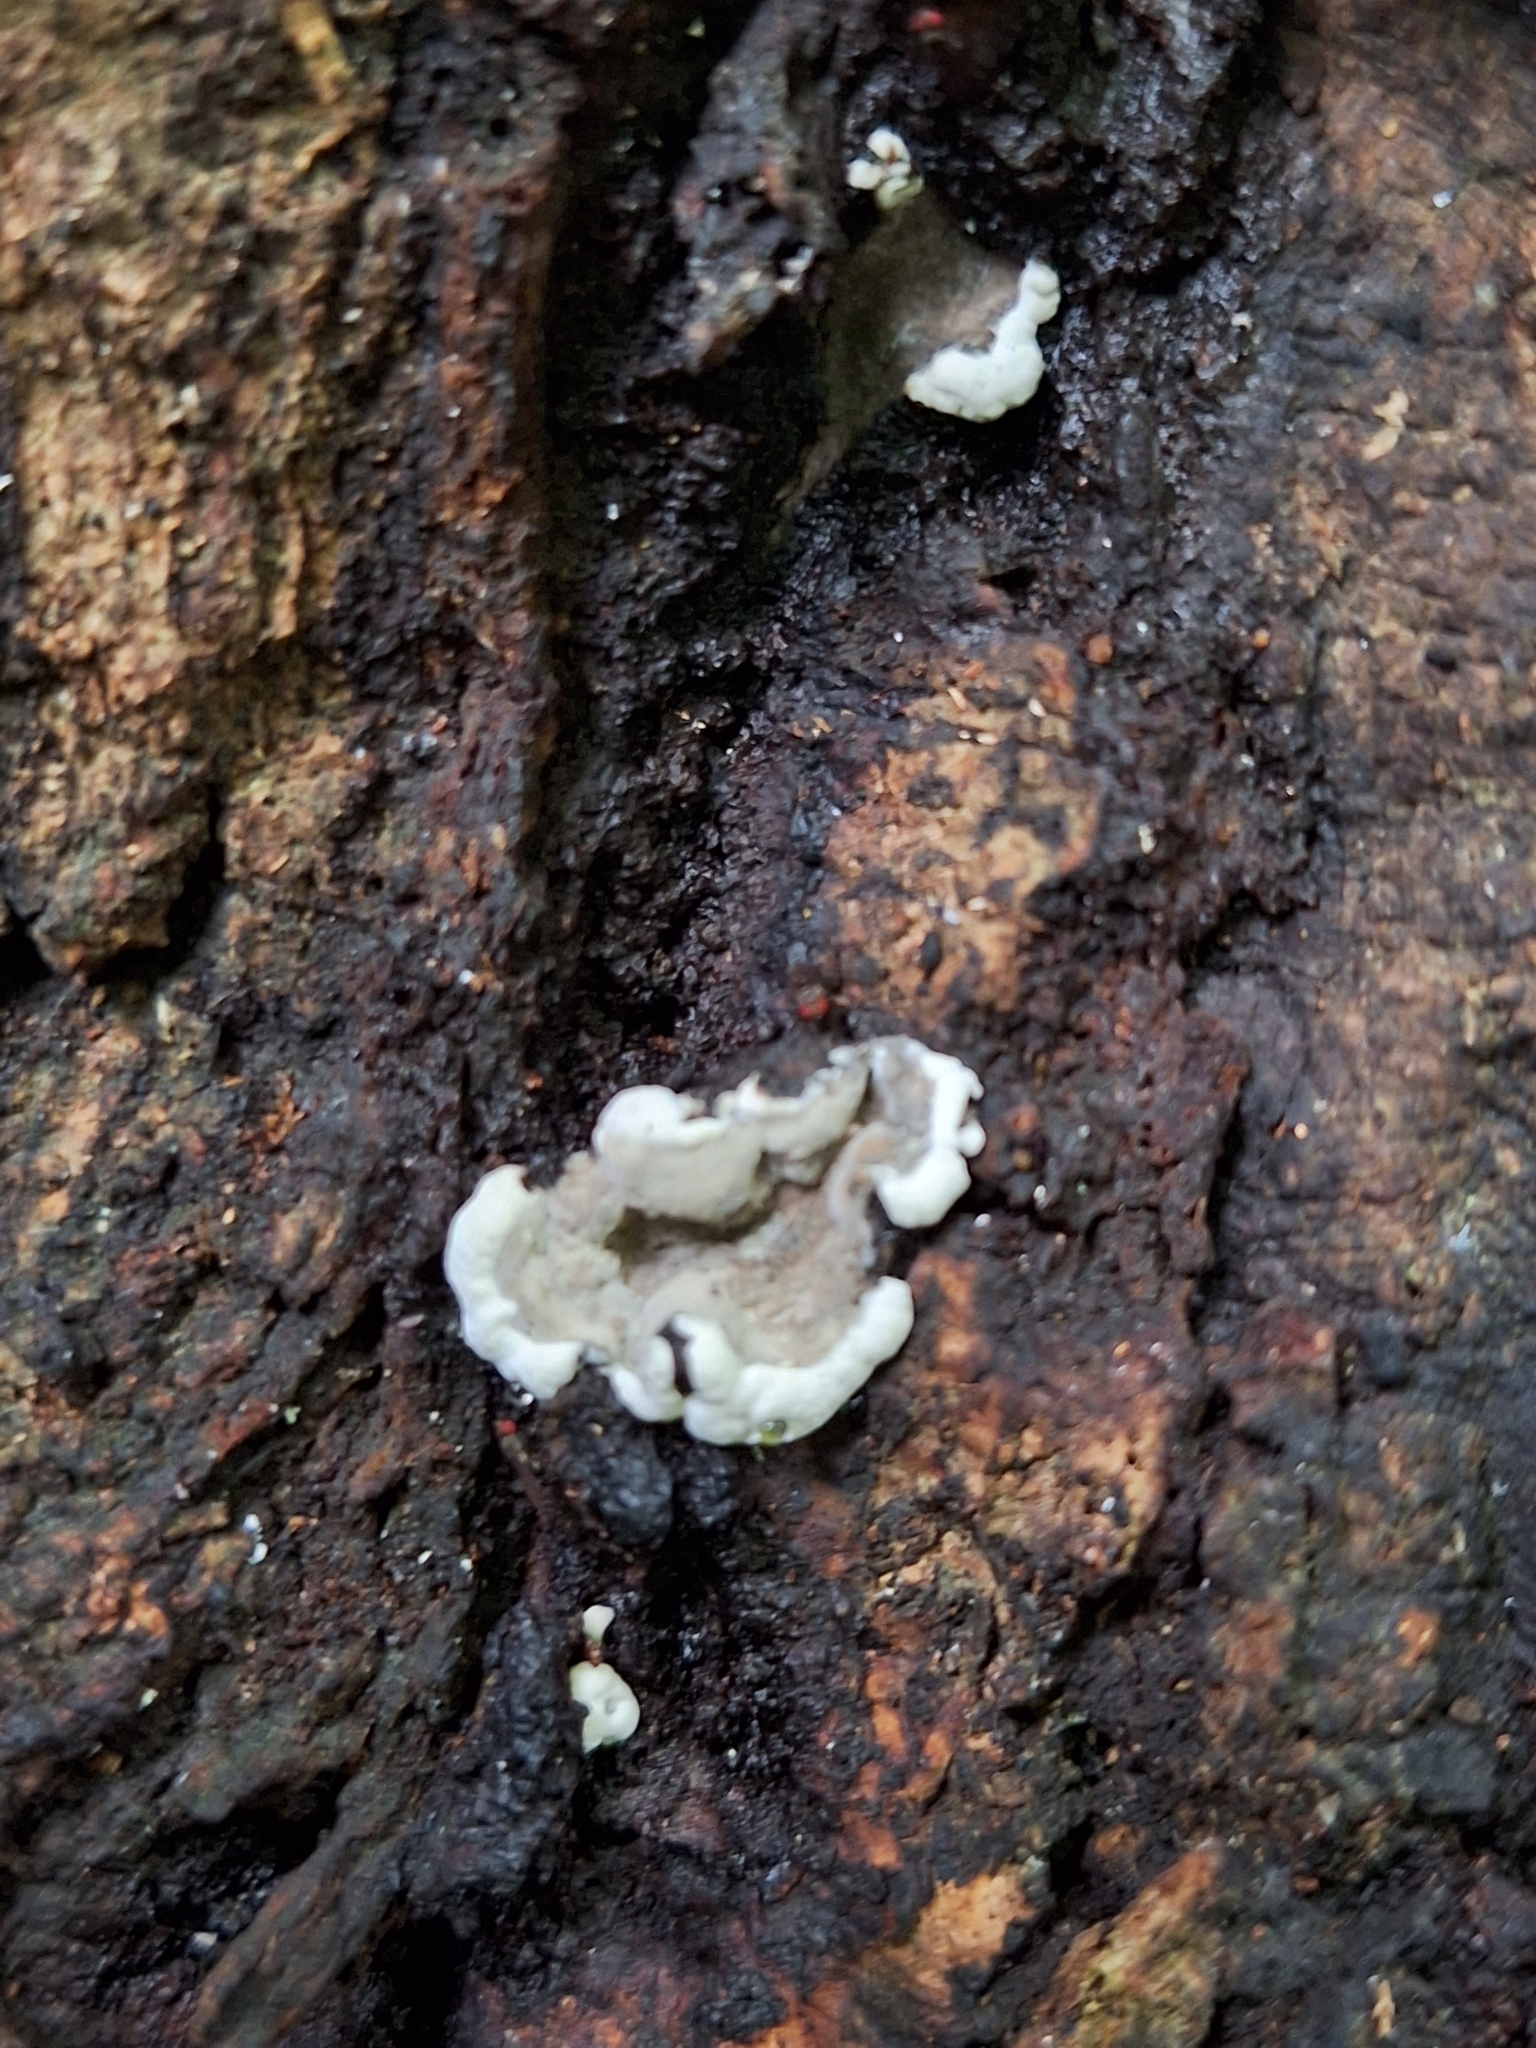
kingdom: Fungi
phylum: Ascomycota
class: Sordariomycetes
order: Xylariales
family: Xylariaceae
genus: Kretzschmaria
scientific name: Kretzschmaria deusta
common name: Brittle cinder
